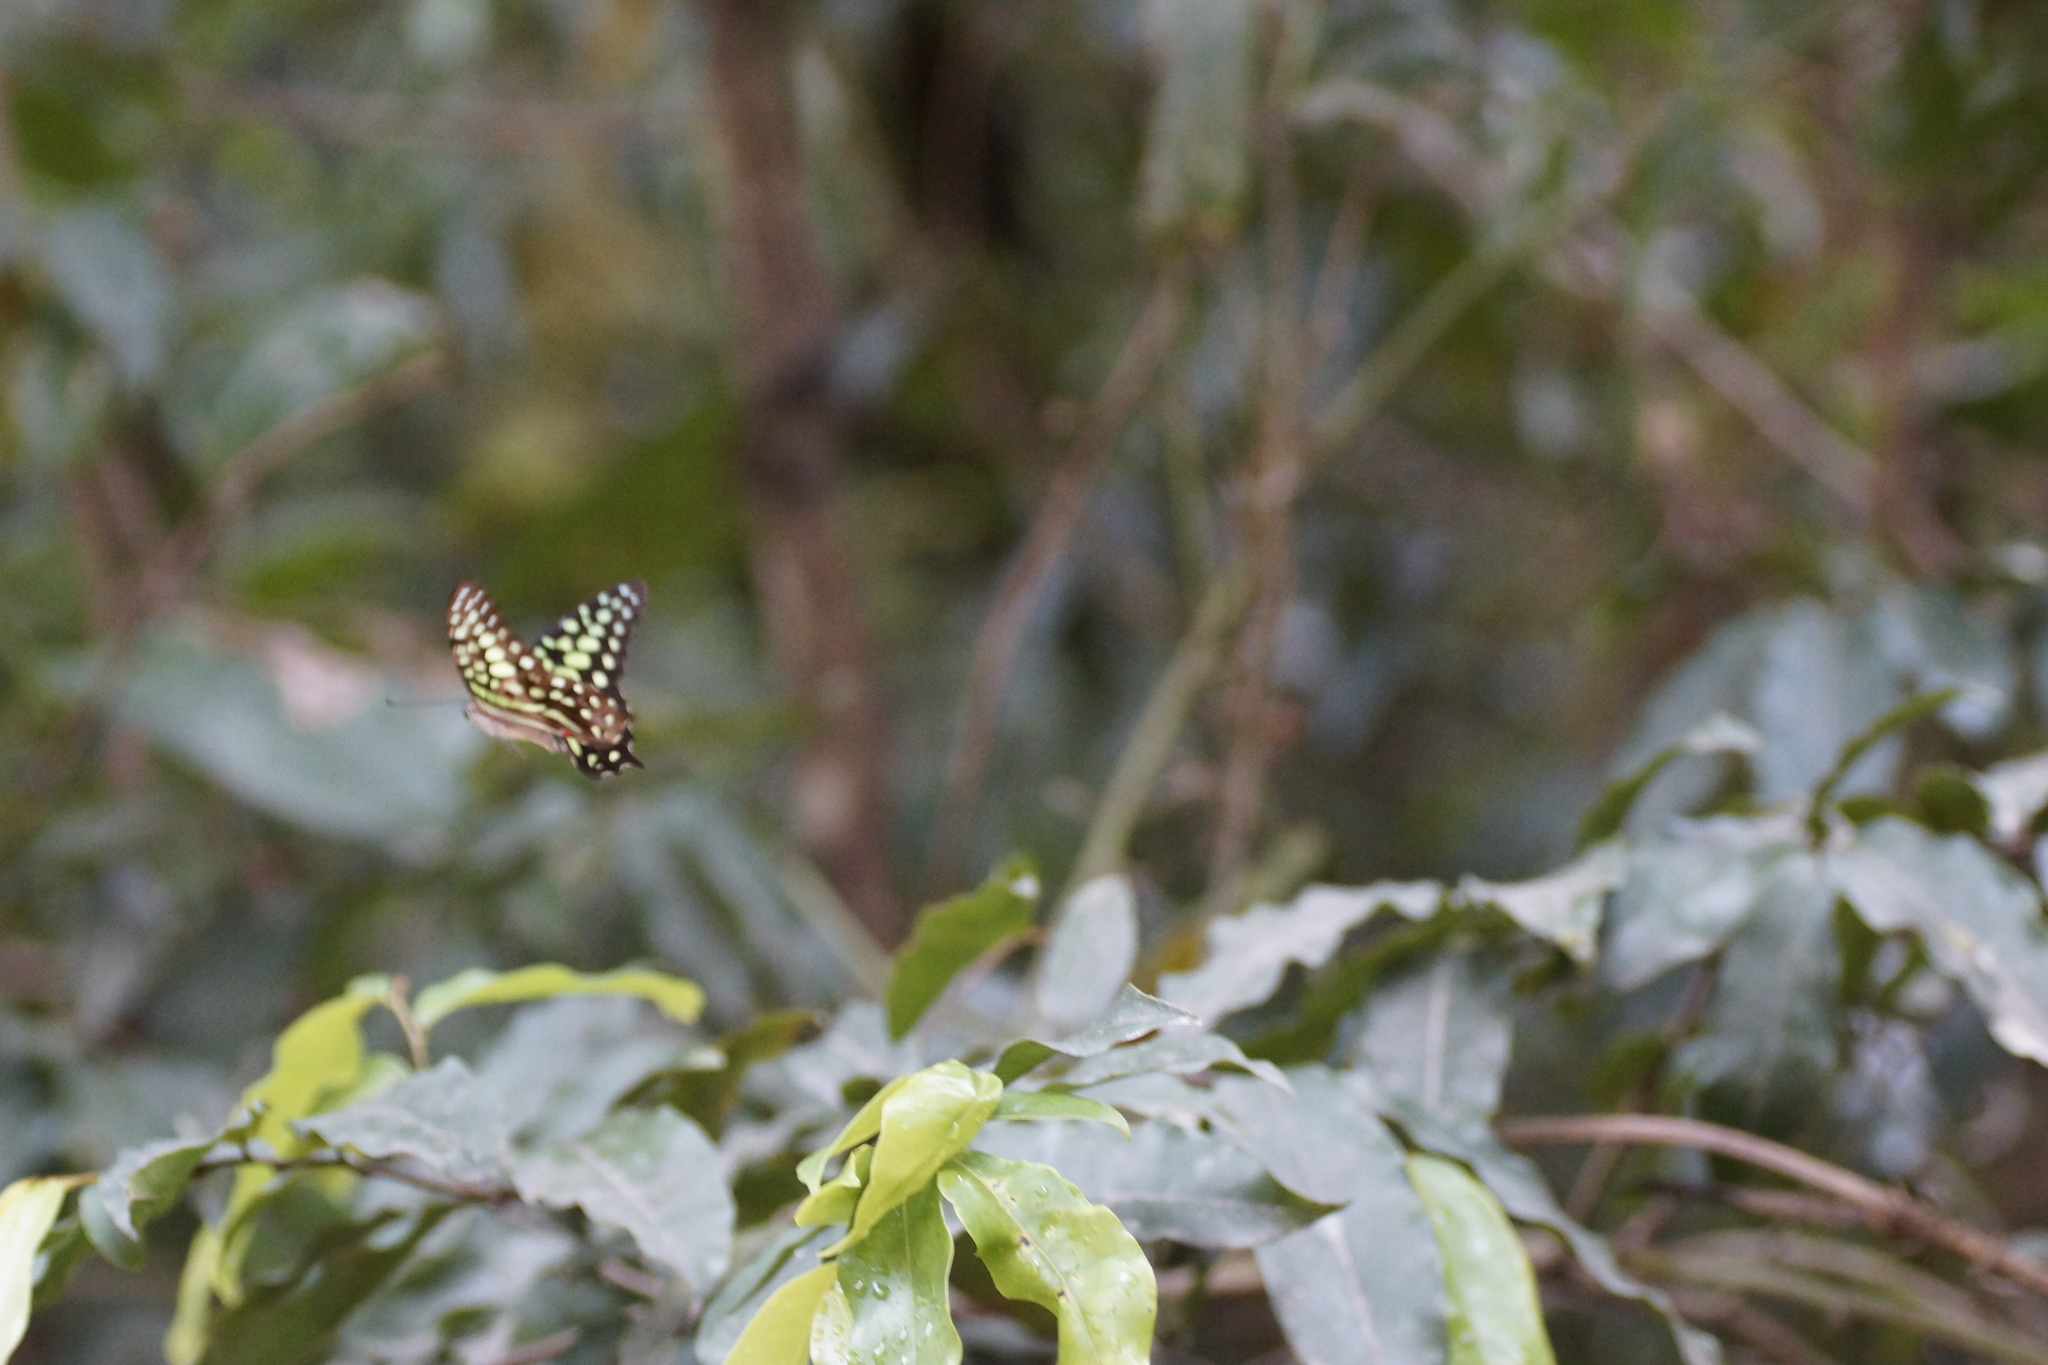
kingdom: Animalia
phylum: Arthropoda
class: Insecta
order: Lepidoptera
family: Papilionidae
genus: Graphium
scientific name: Graphium agamemnon
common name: Tailed jay
